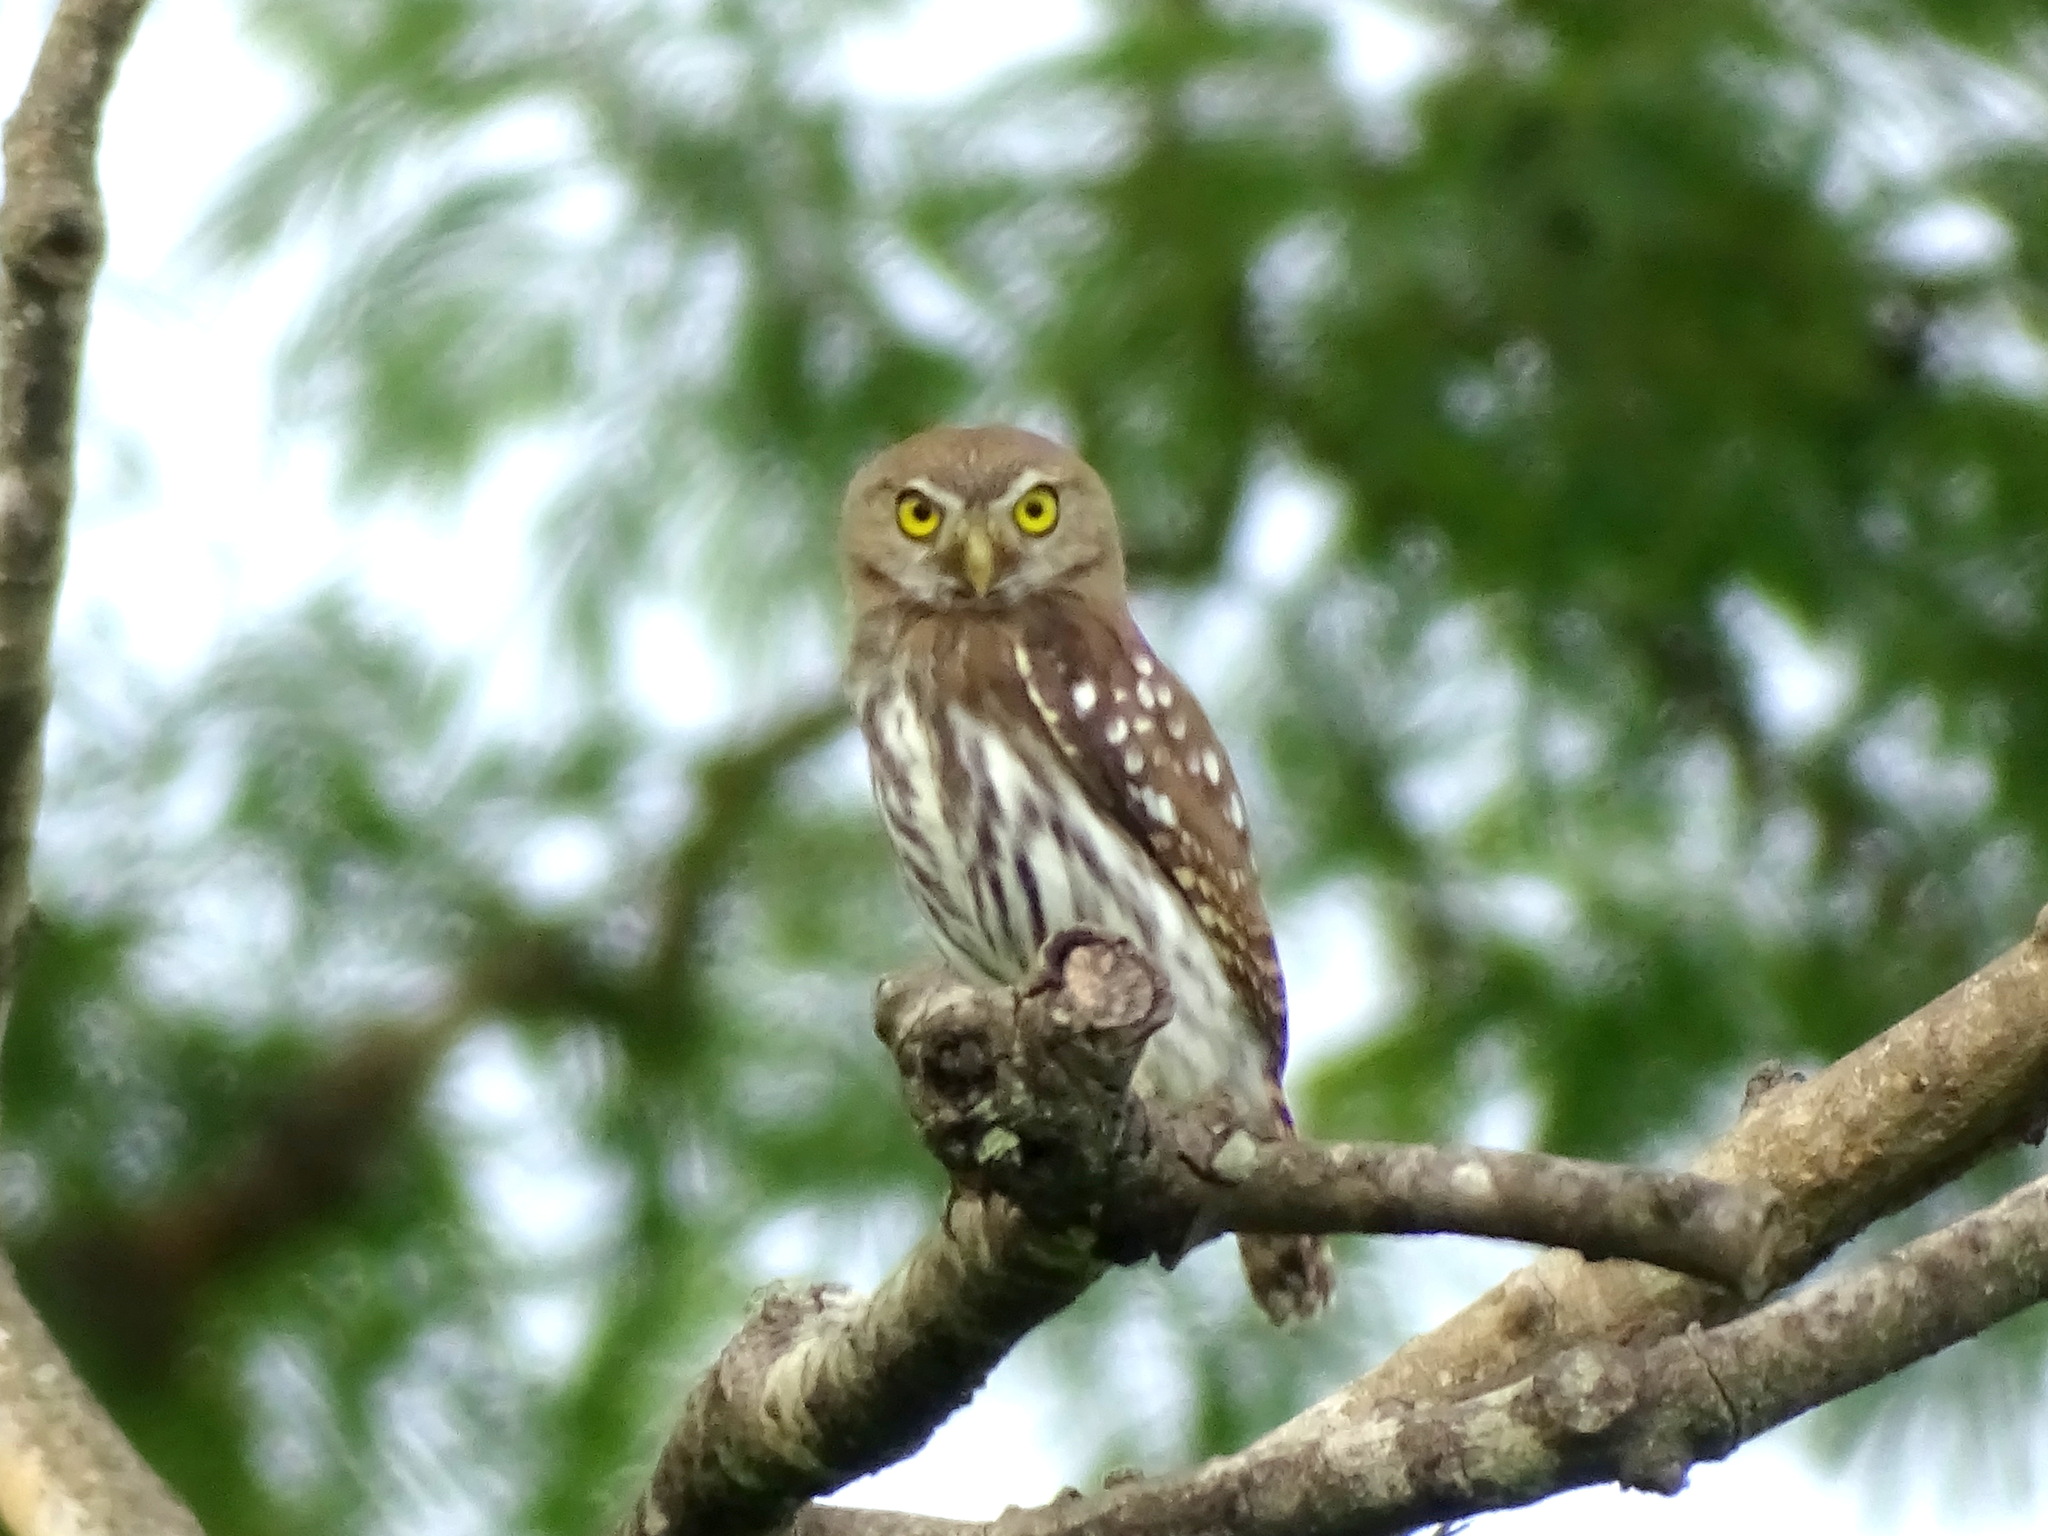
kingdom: Animalia
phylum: Chordata
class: Aves
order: Strigiformes
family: Strigidae
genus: Glaucidium
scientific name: Glaucidium brasilianum
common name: Ferruginous pygmy-owl
